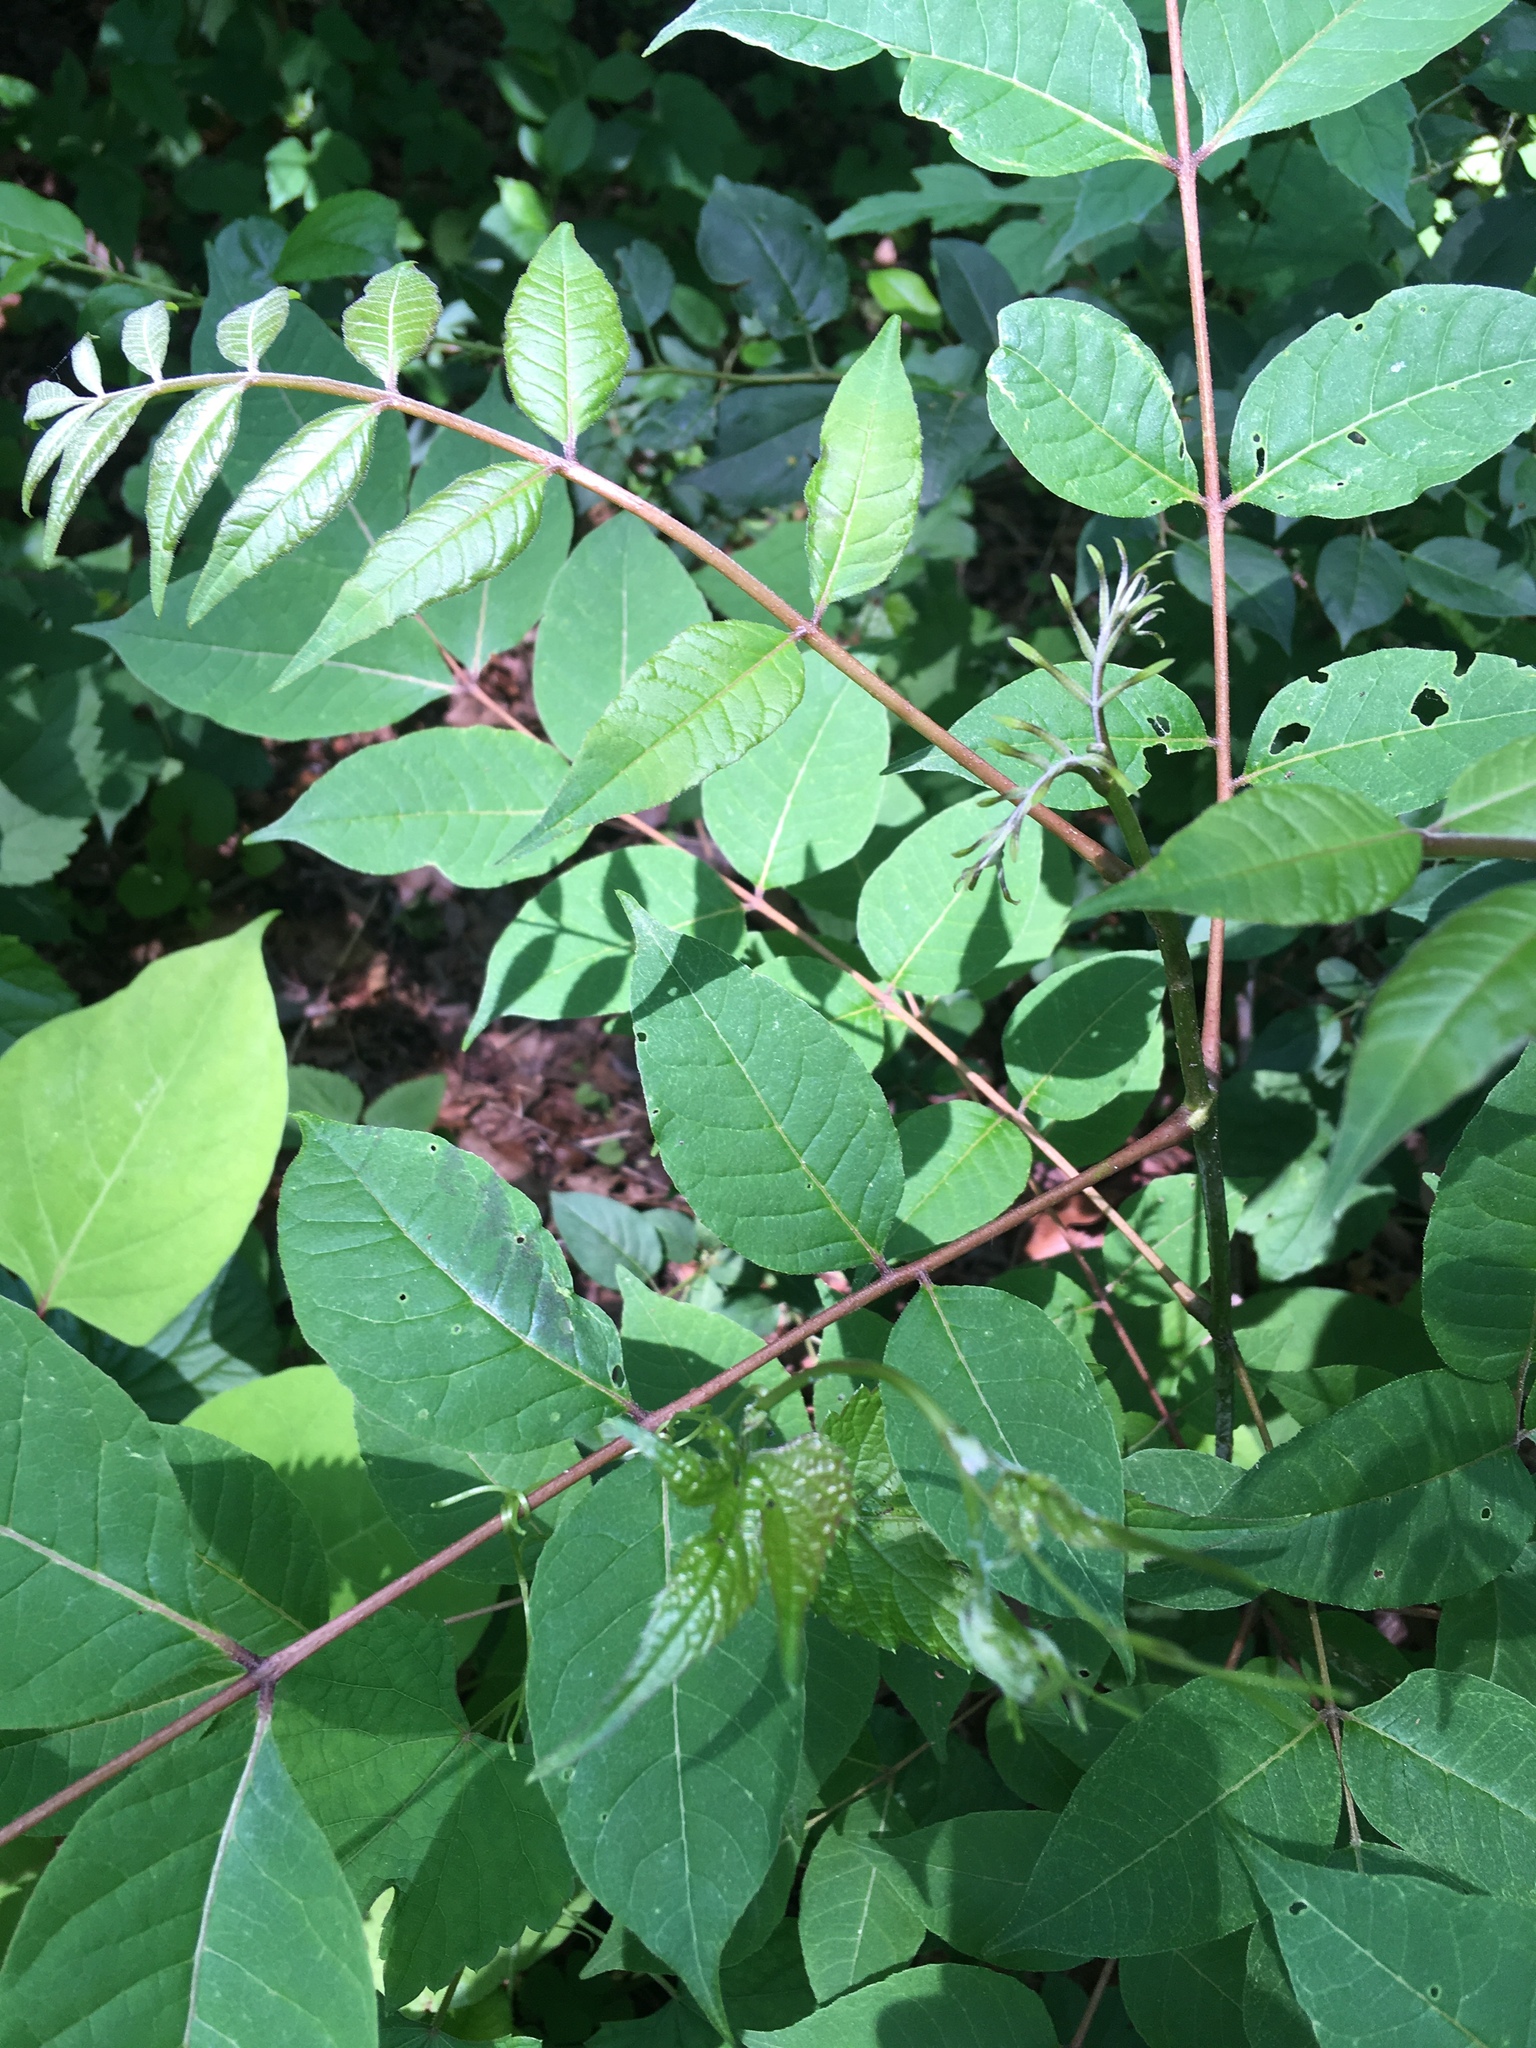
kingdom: Plantae
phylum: Tracheophyta
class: Magnoliopsida
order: Sapindales
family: Rutaceae
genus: Phellodendron
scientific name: Phellodendron amurense
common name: Amur corktree
